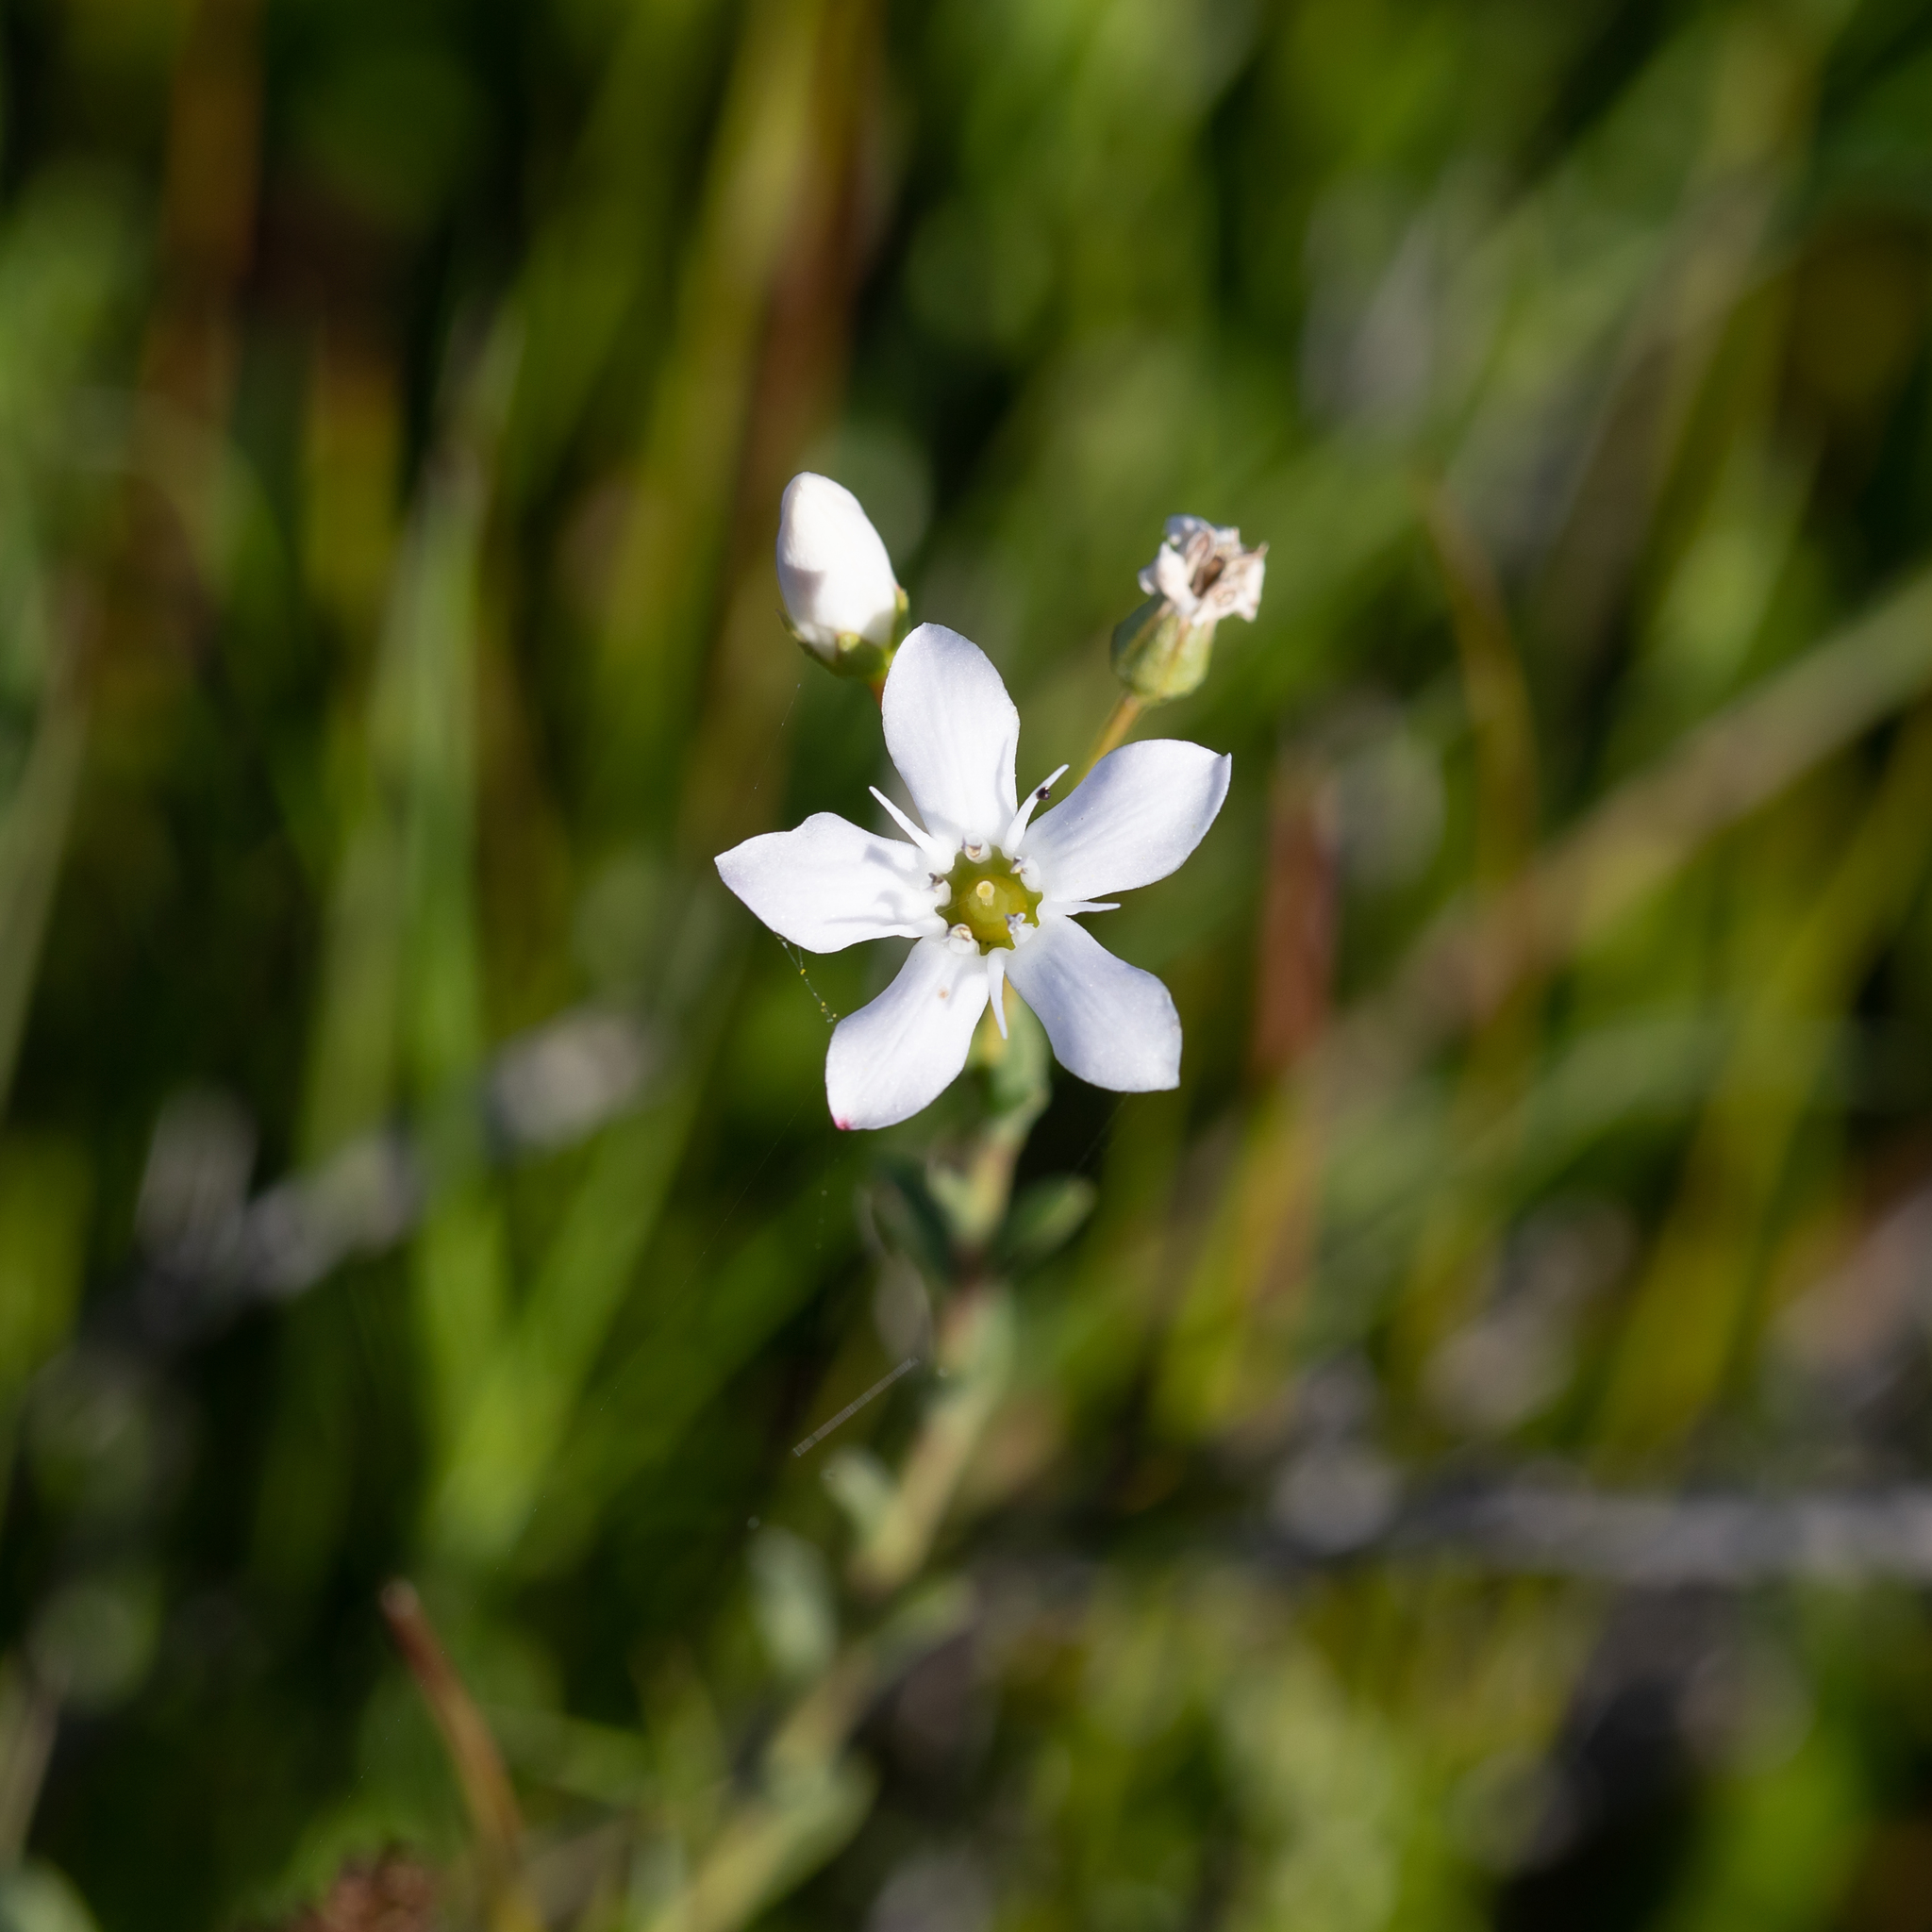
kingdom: Plantae
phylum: Tracheophyta
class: Magnoliopsida
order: Ericales
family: Primulaceae
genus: Samolus
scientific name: Samolus repens
